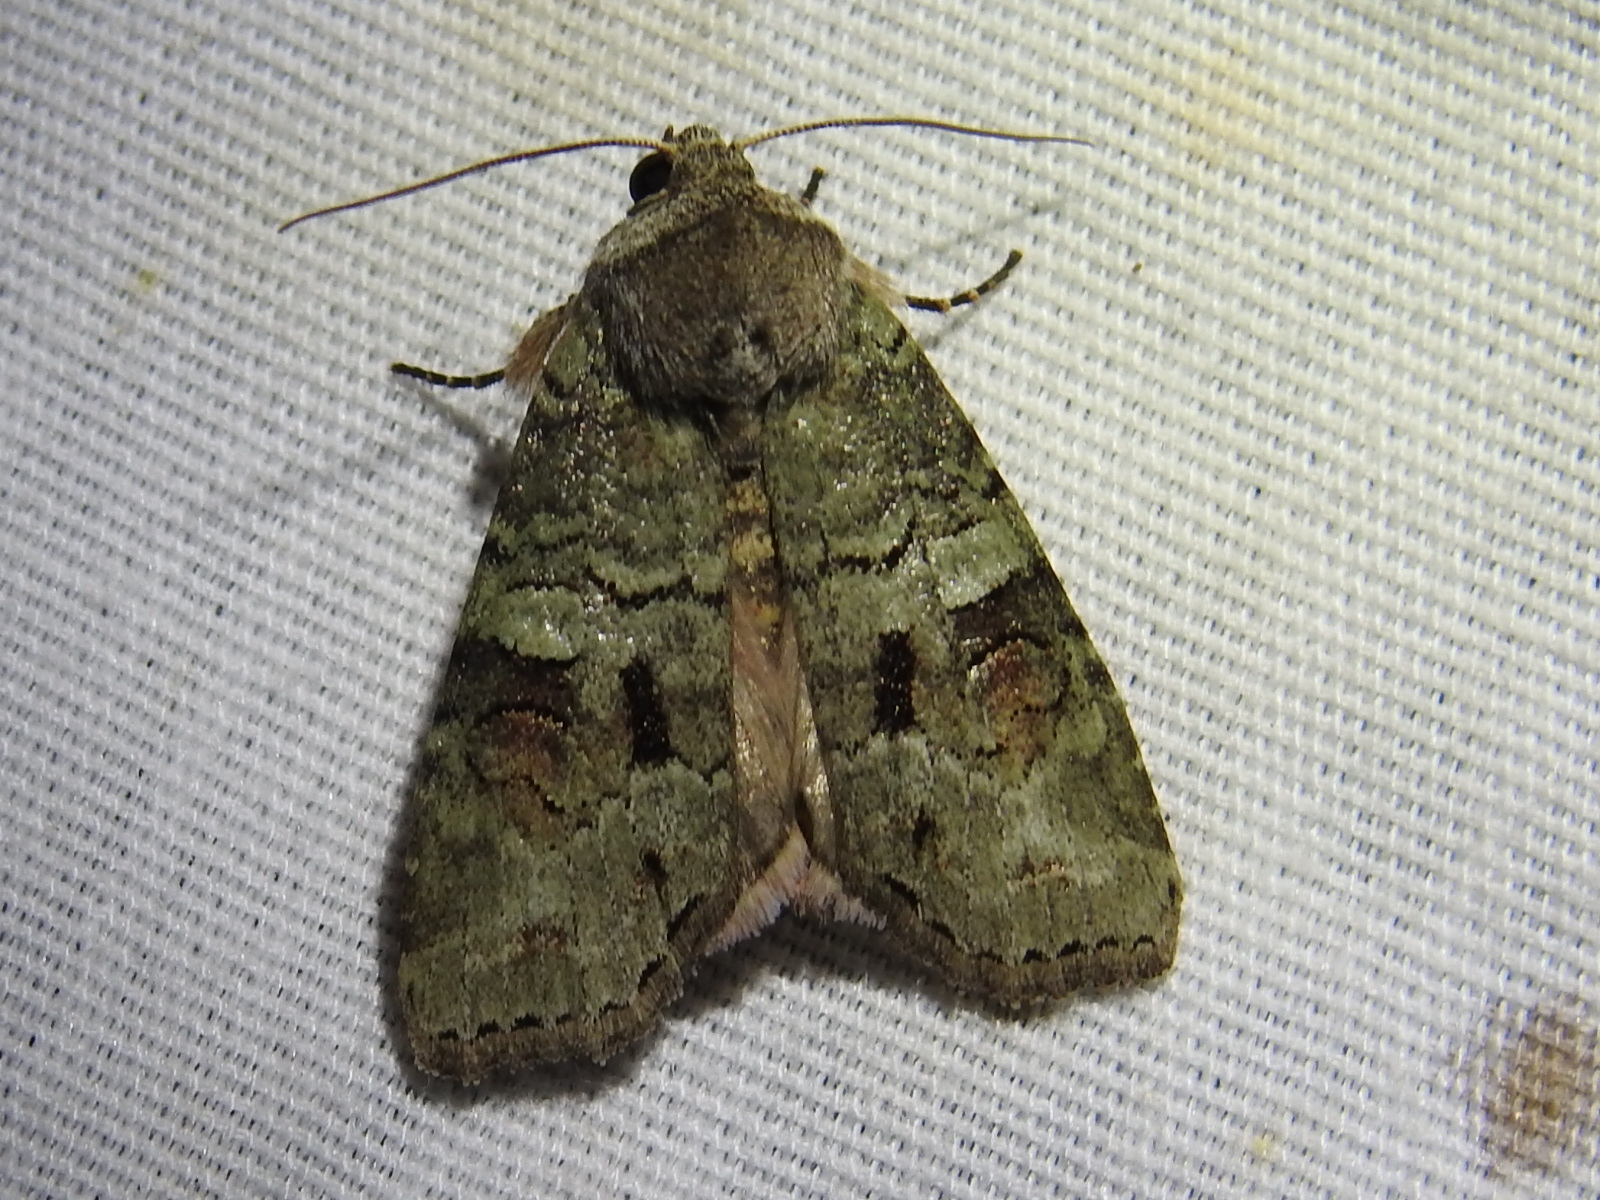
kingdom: Animalia
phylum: Arthropoda
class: Insecta
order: Lepidoptera
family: Noctuidae
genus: Egira
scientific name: Egira alternans
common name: Alternate woodling
